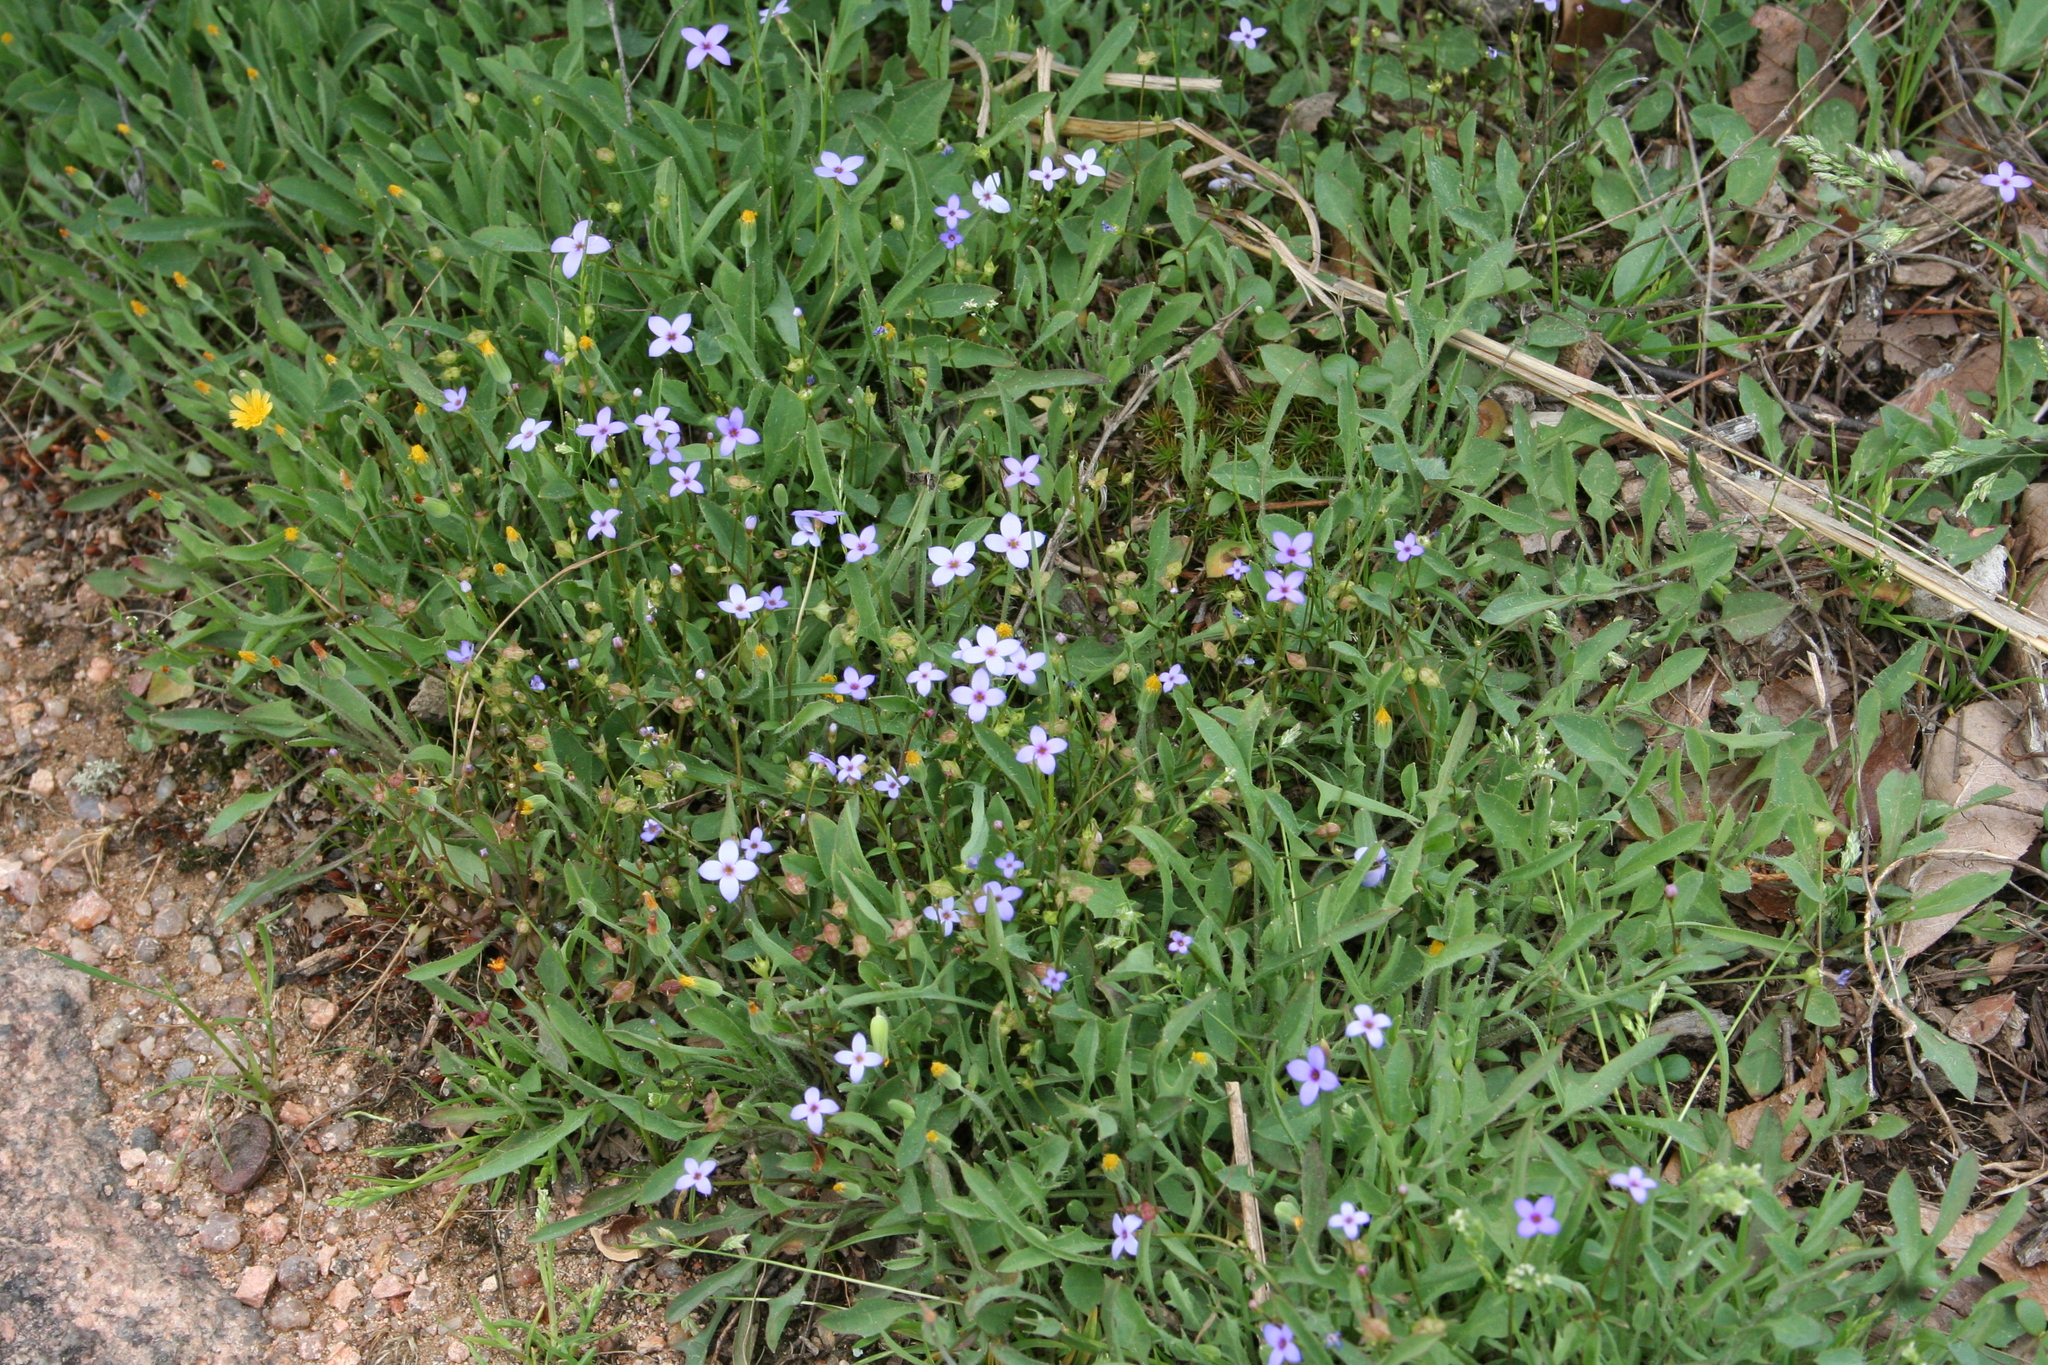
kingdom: Plantae
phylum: Tracheophyta
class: Magnoliopsida
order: Gentianales
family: Rubiaceae
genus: Houstonia
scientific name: Houstonia pusilla
